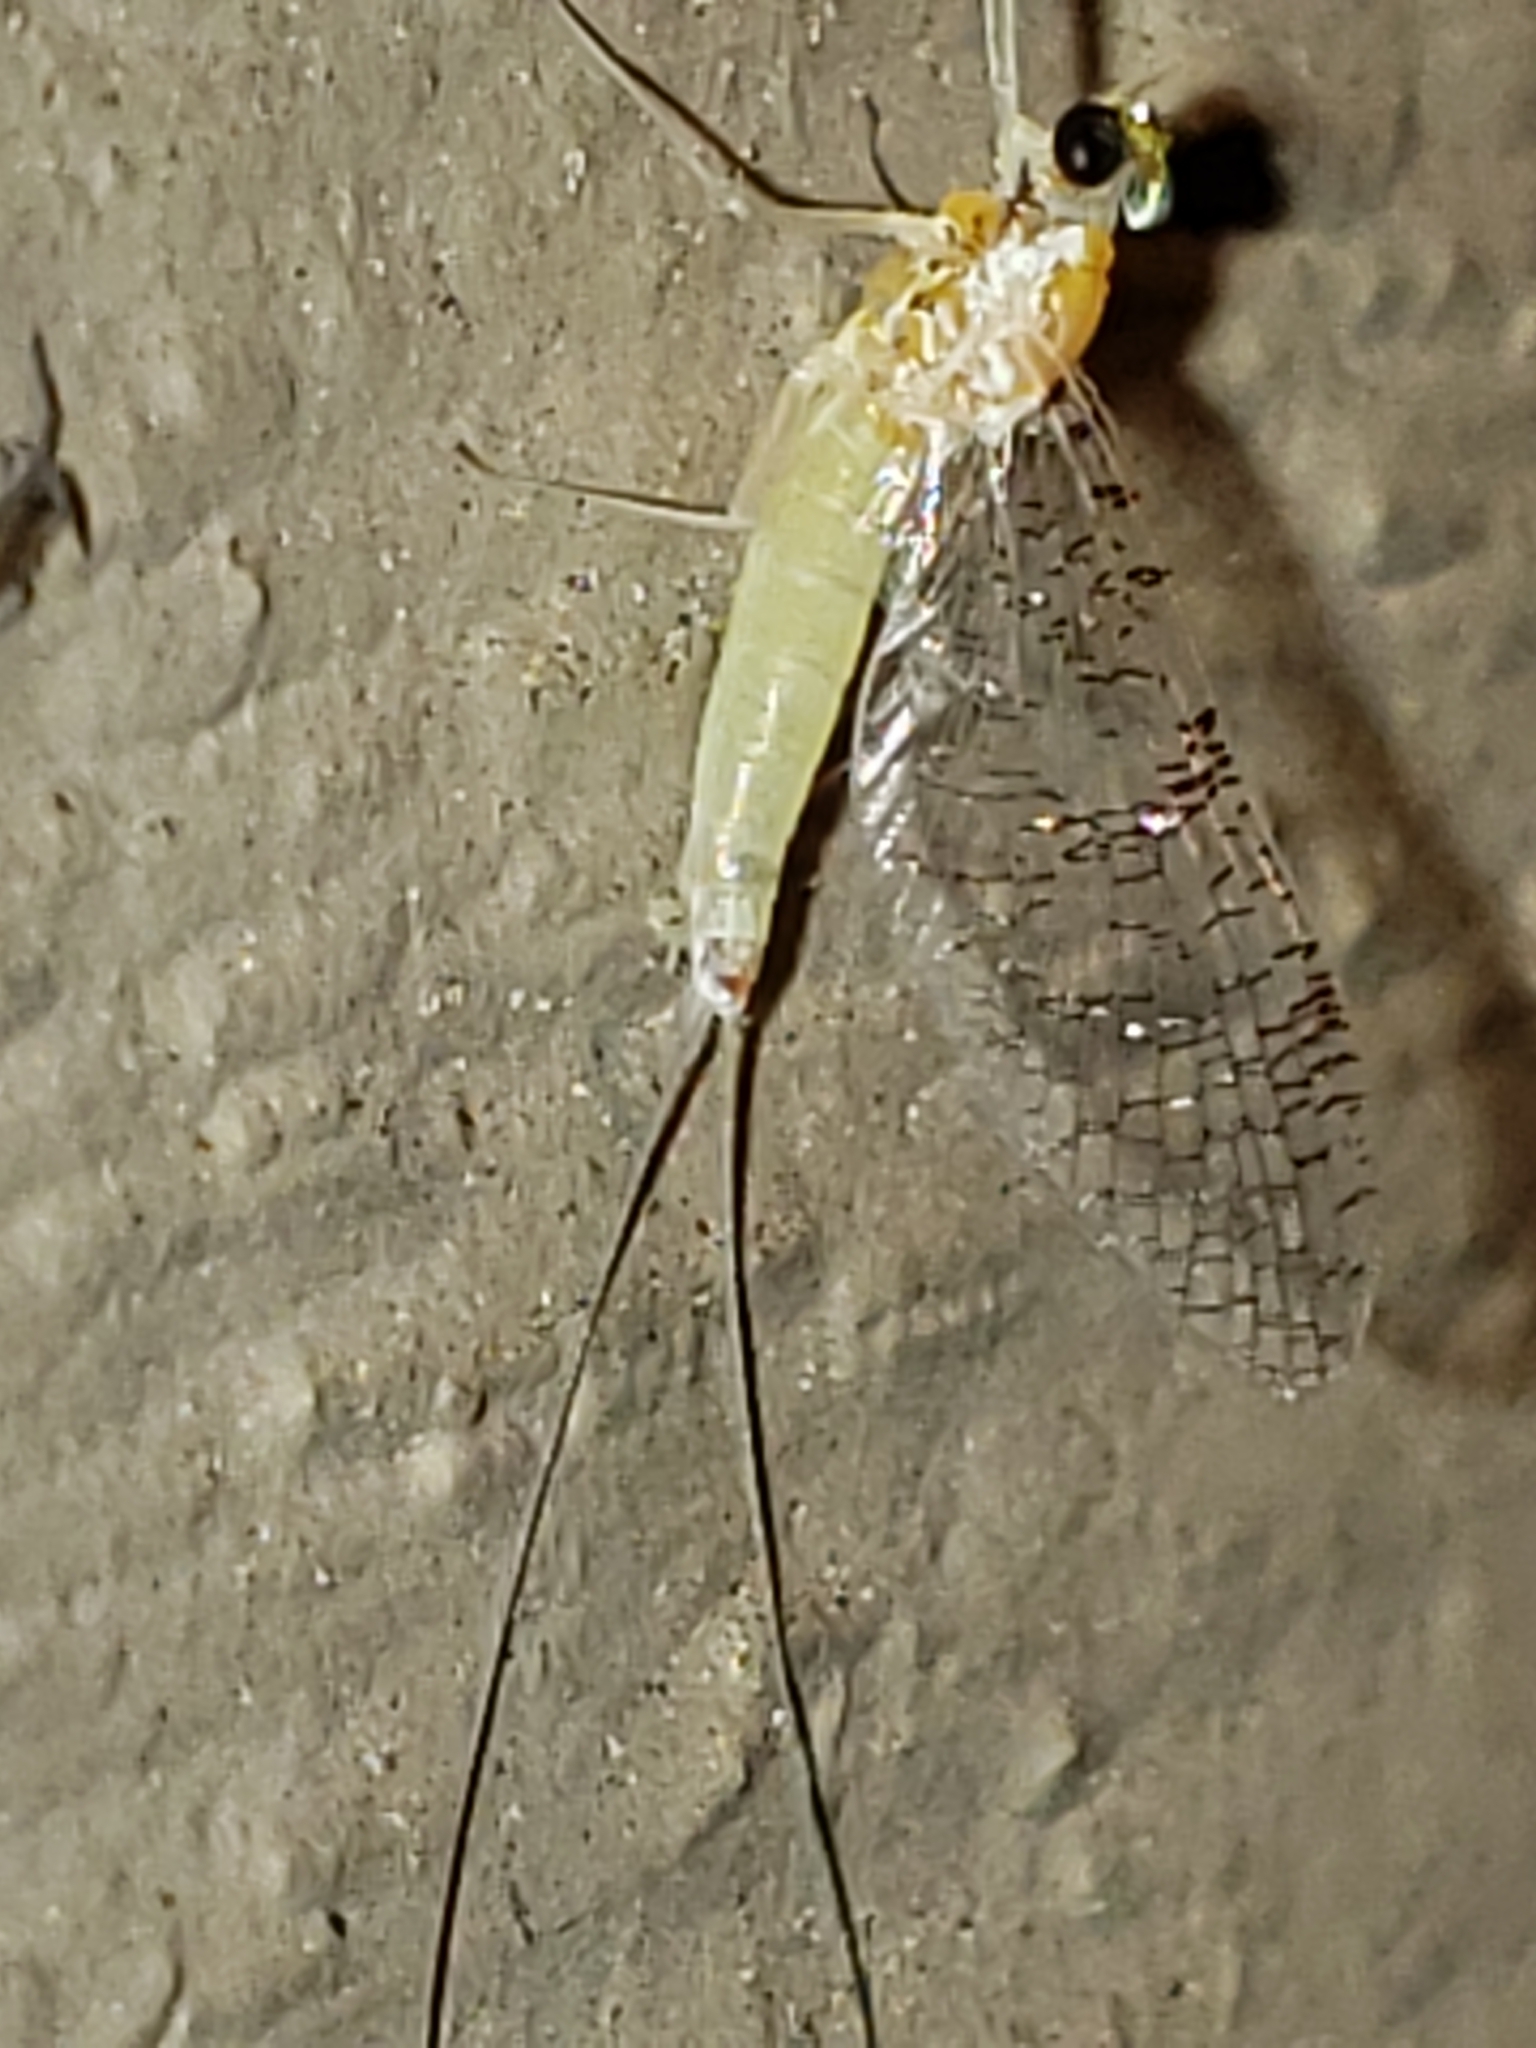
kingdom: Animalia
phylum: Arthropoda
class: Insecta
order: Ephemeroptera
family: Heptageniidae
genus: Leucrocuta
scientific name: Leucrocuta maculipennis
